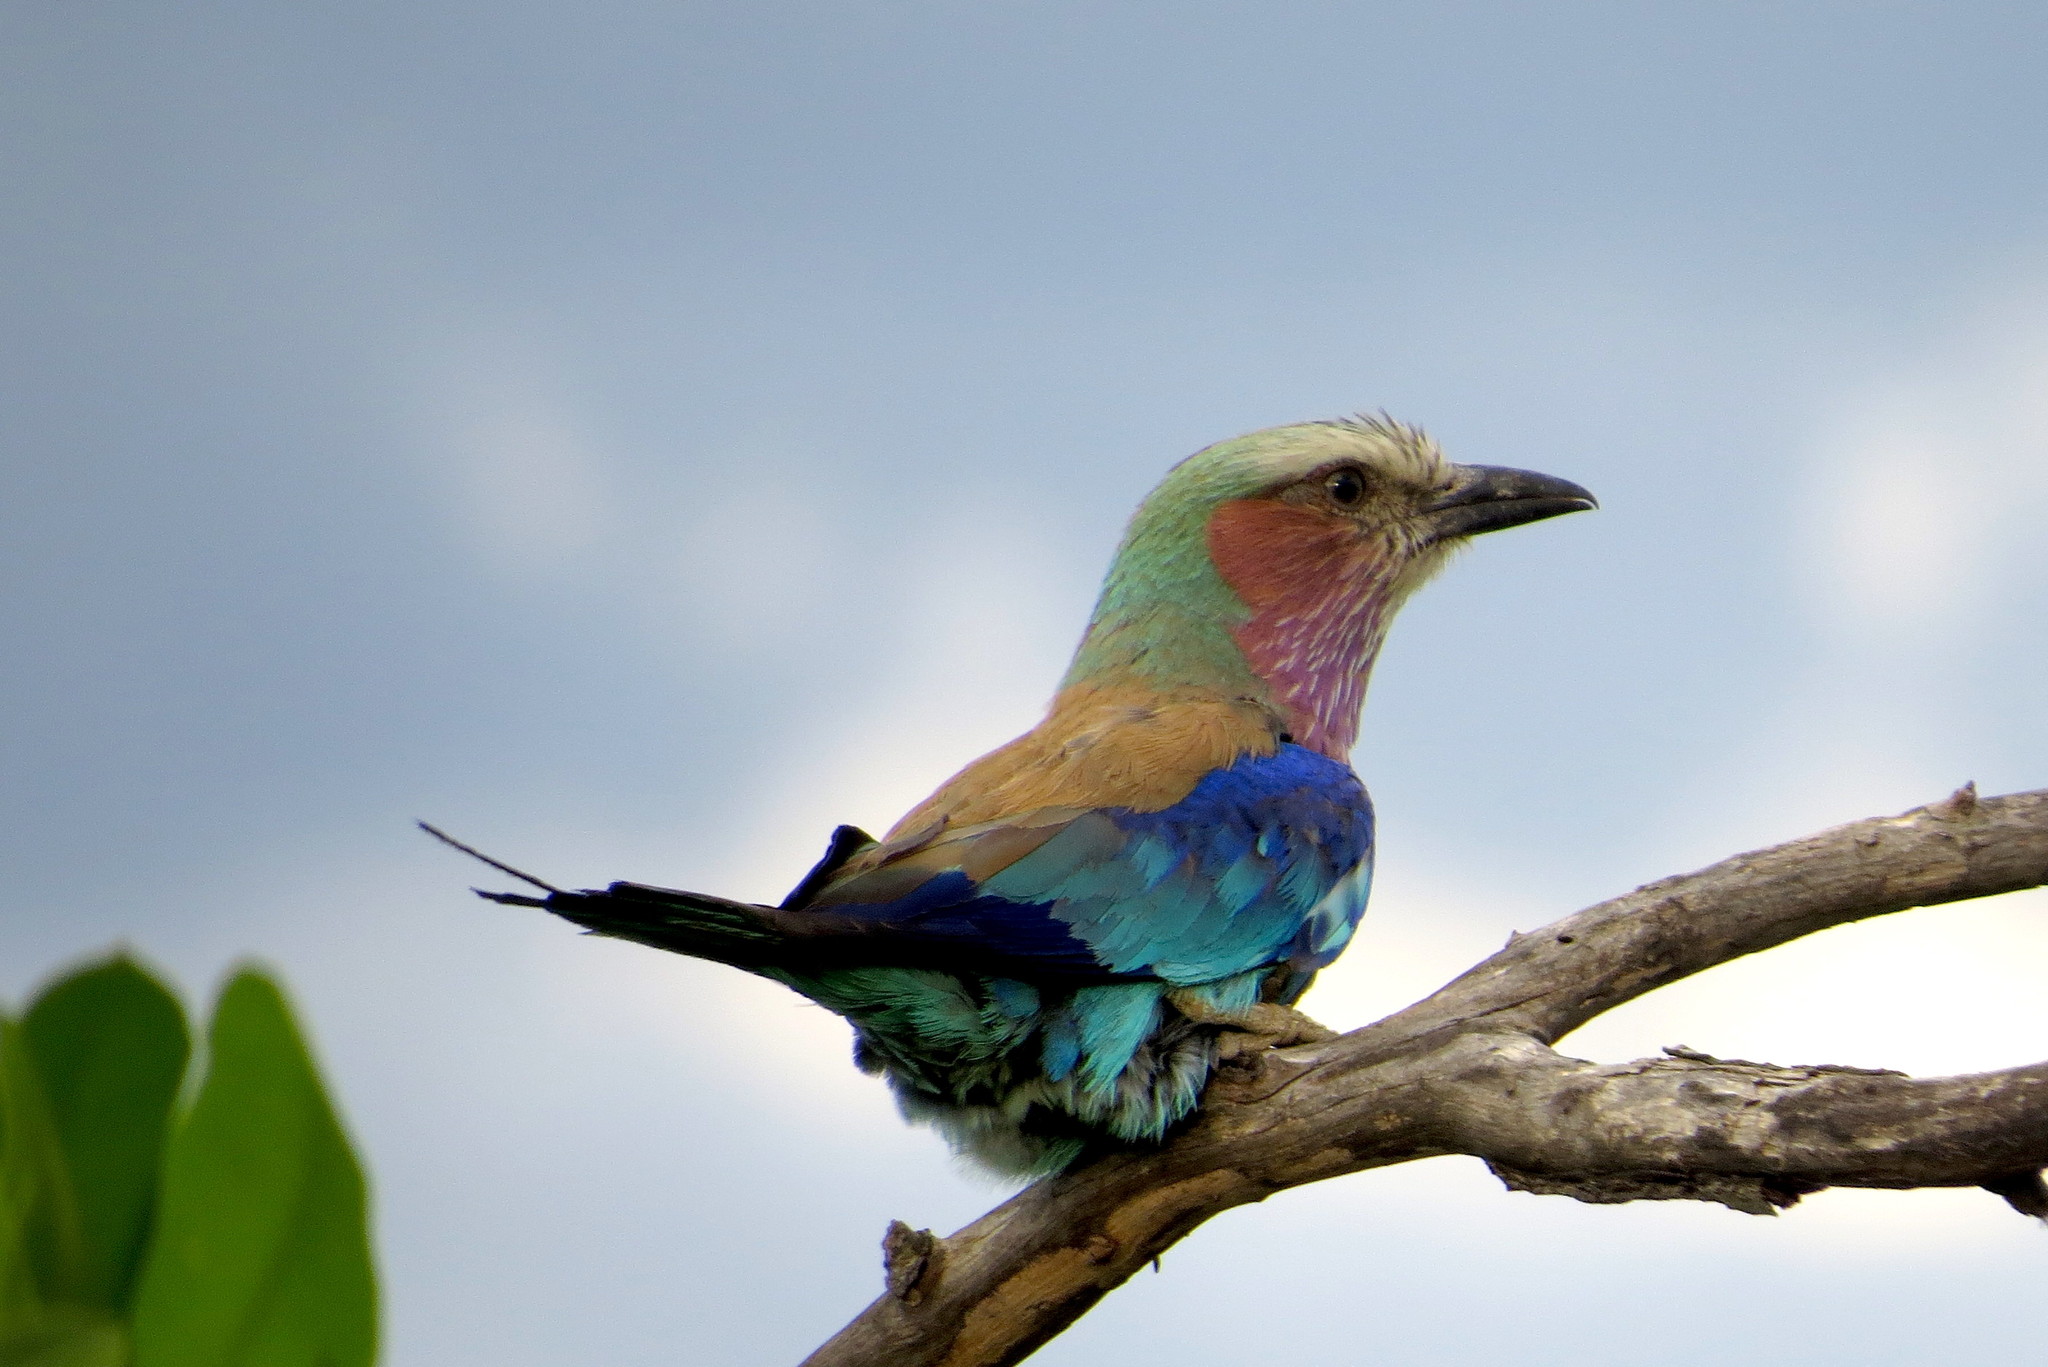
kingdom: Animalia
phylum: Chordata
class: Aves
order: Coraciiformes
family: Coraciidae
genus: Coracias
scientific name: Coracias caudatus
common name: Lilac-breasted roller
